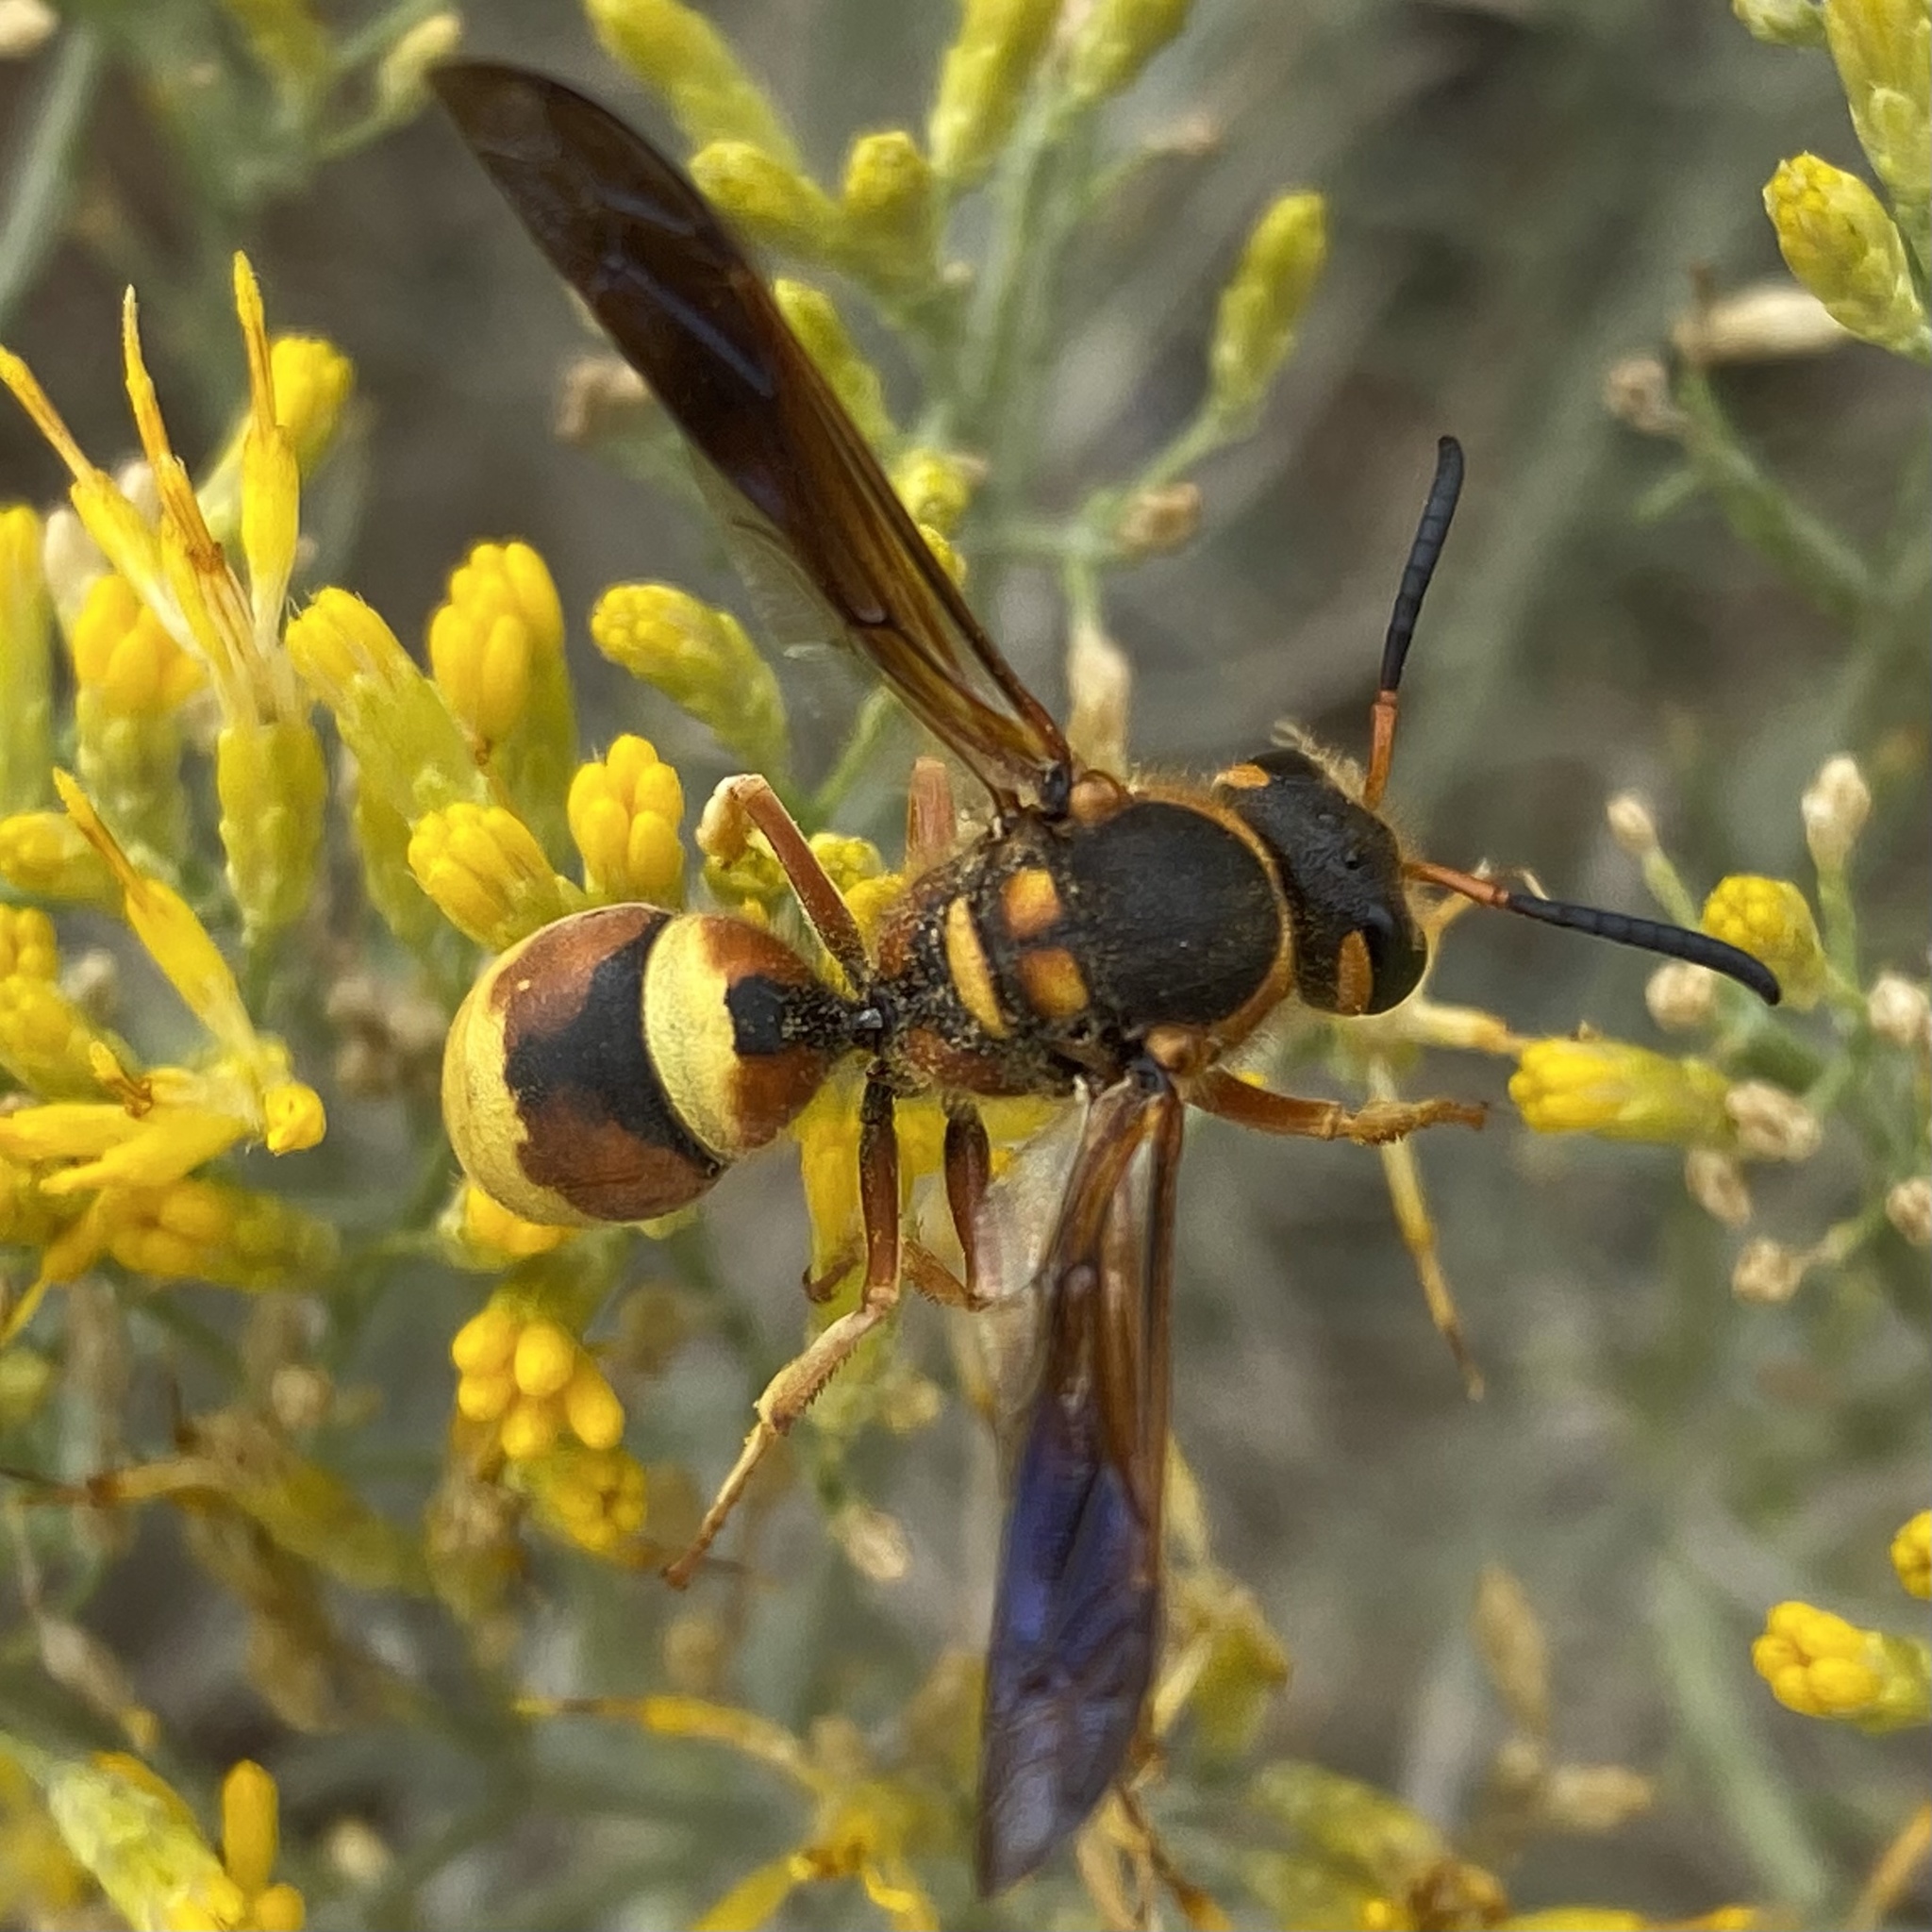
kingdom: Animalia
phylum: Arthropoda
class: Insecta
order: Hymenoptera
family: Vespidae
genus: Megapterocheilus
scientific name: Megapterocheilus
